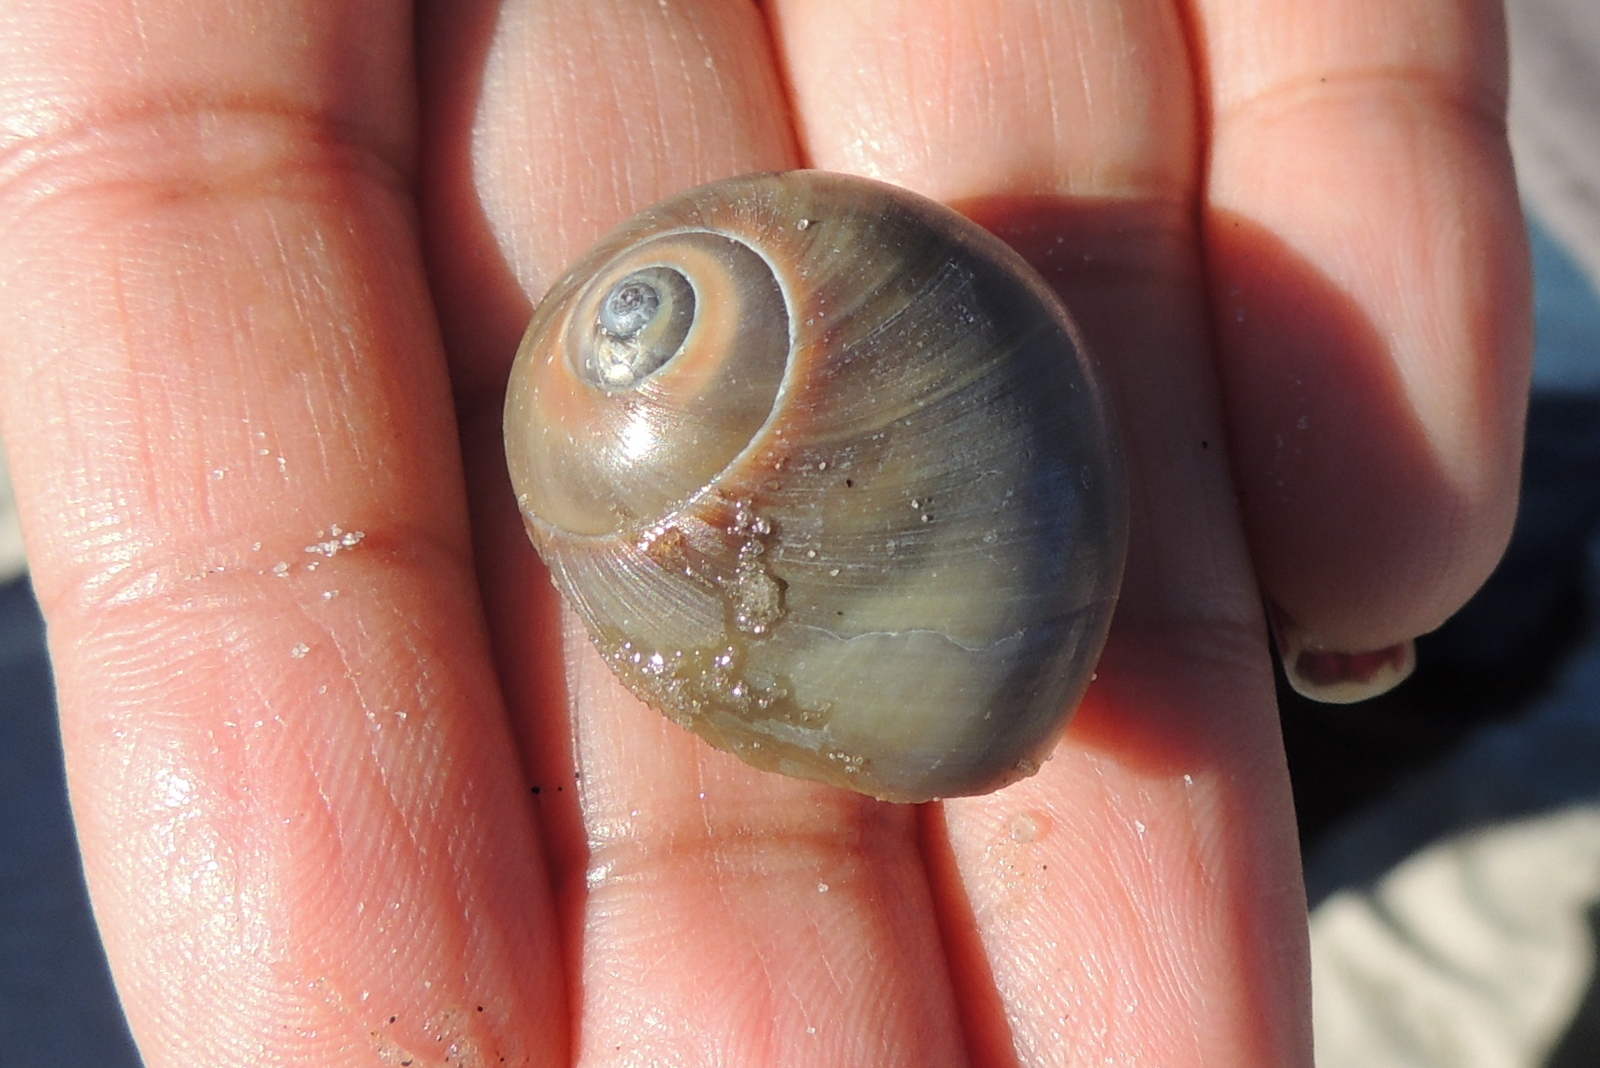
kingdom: Animalia
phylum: Mollusca
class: Gastropoda
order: Littorinimorpha
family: Naticidae
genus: Neverita
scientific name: Neverita duplicata
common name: Lobed moonsnail
